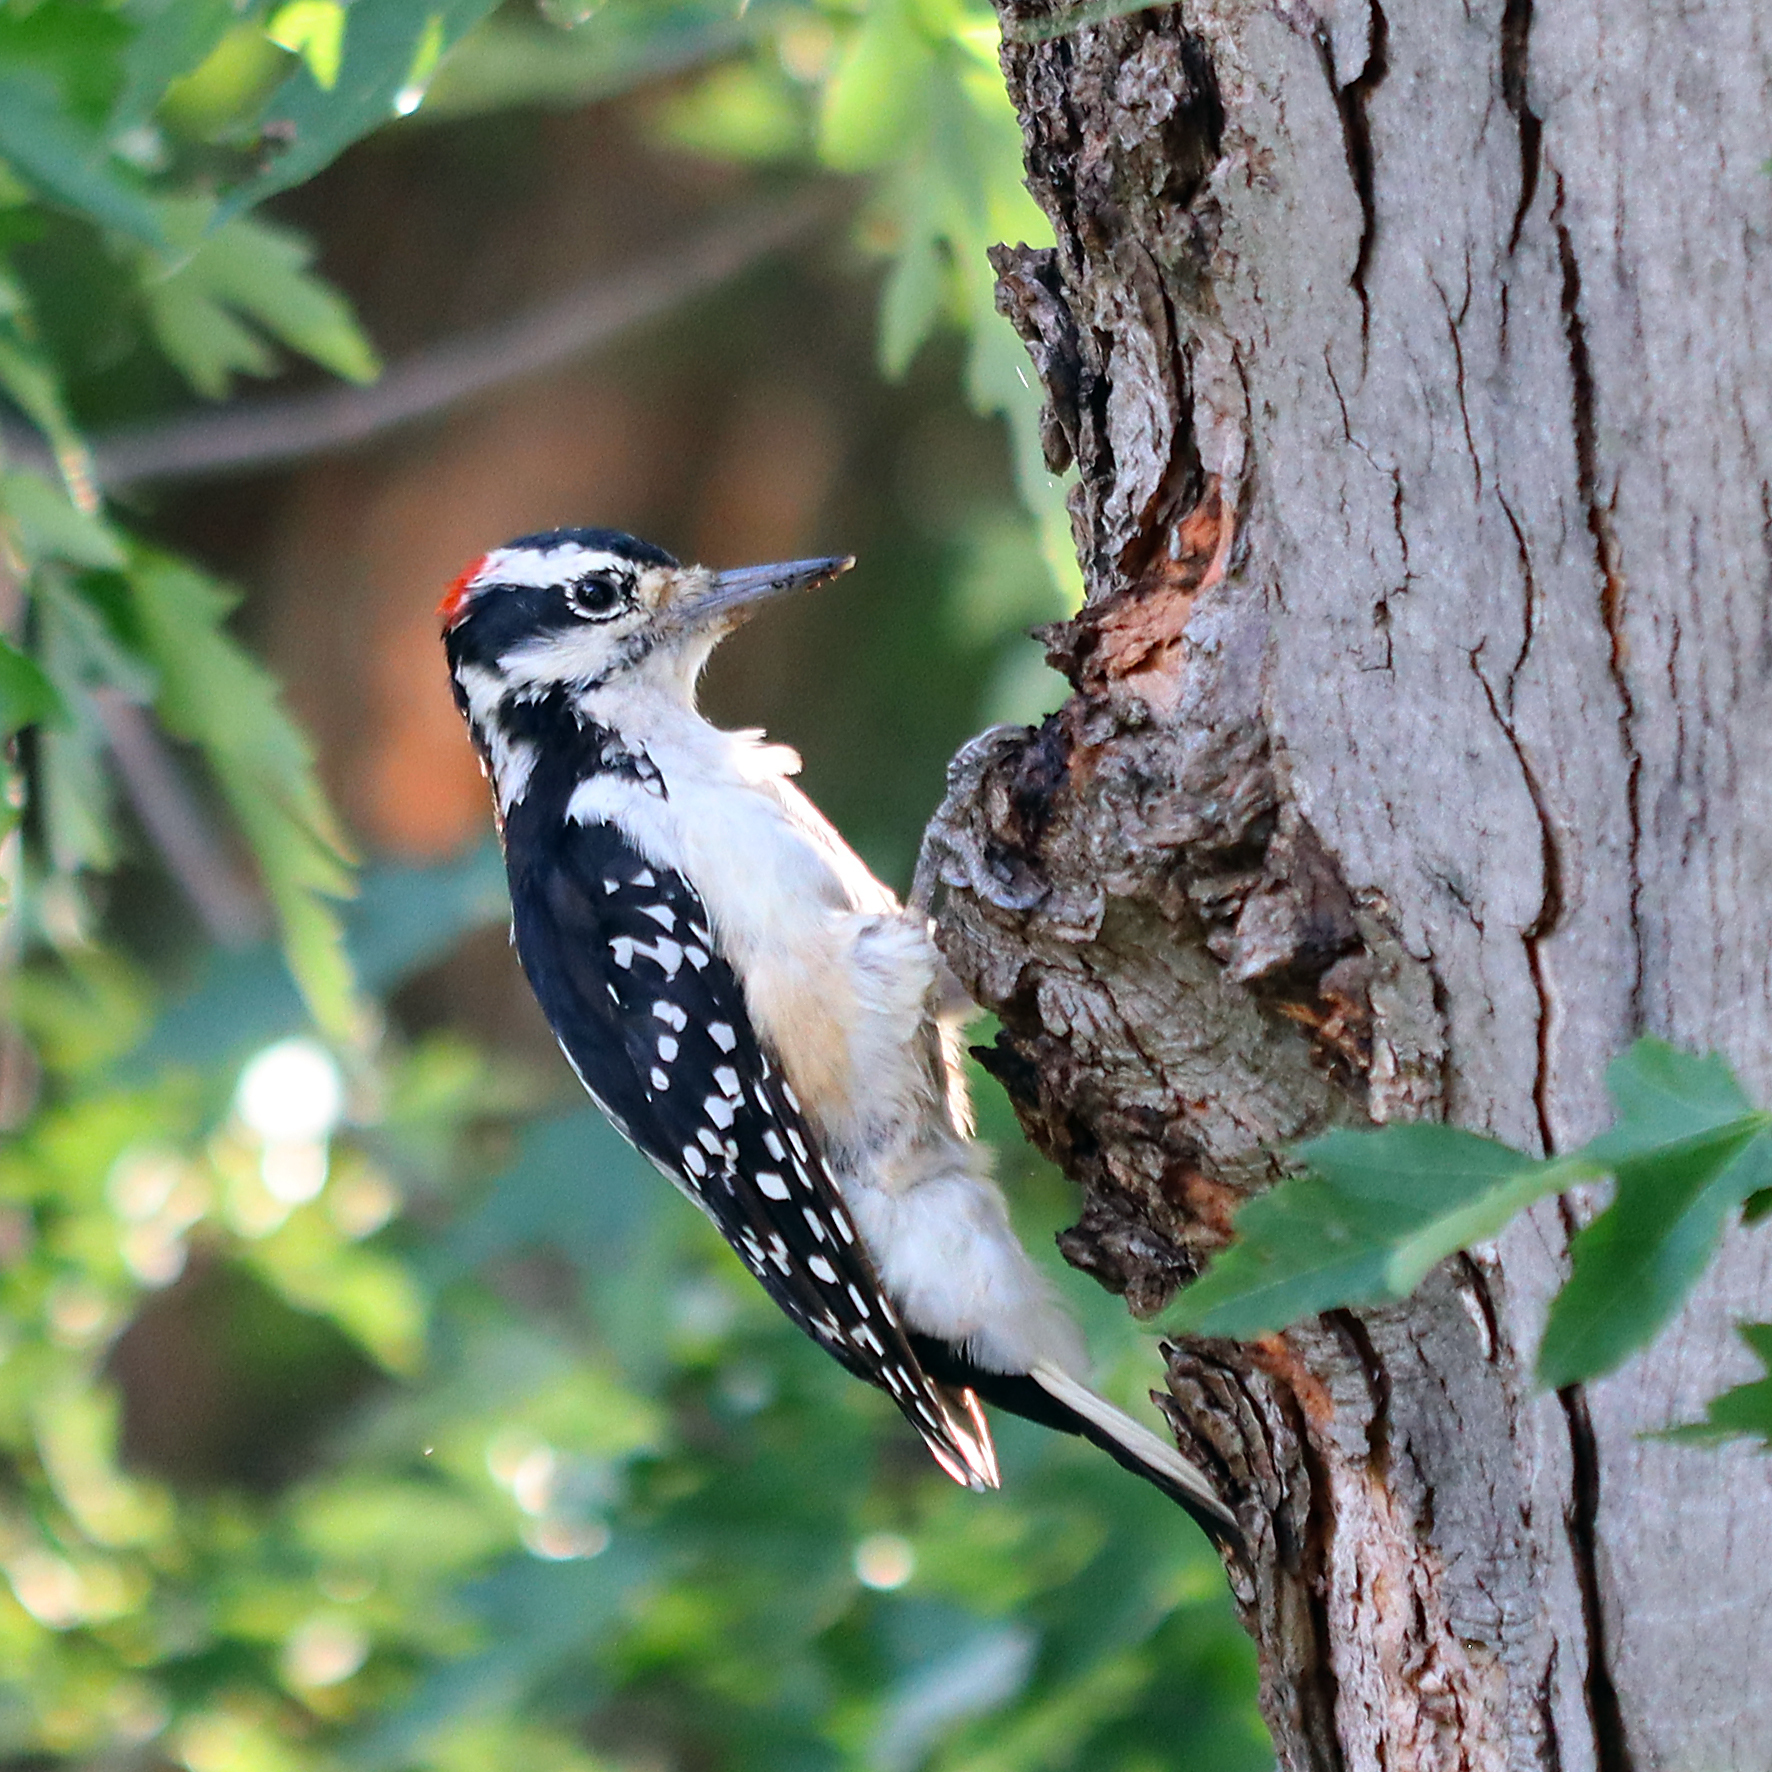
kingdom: Animalia
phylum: Chordata
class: Aves
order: Piciformes
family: Picidae
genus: Leuconotopicus
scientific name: Leuconotopicus villosus
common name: Hairy woodpecker
